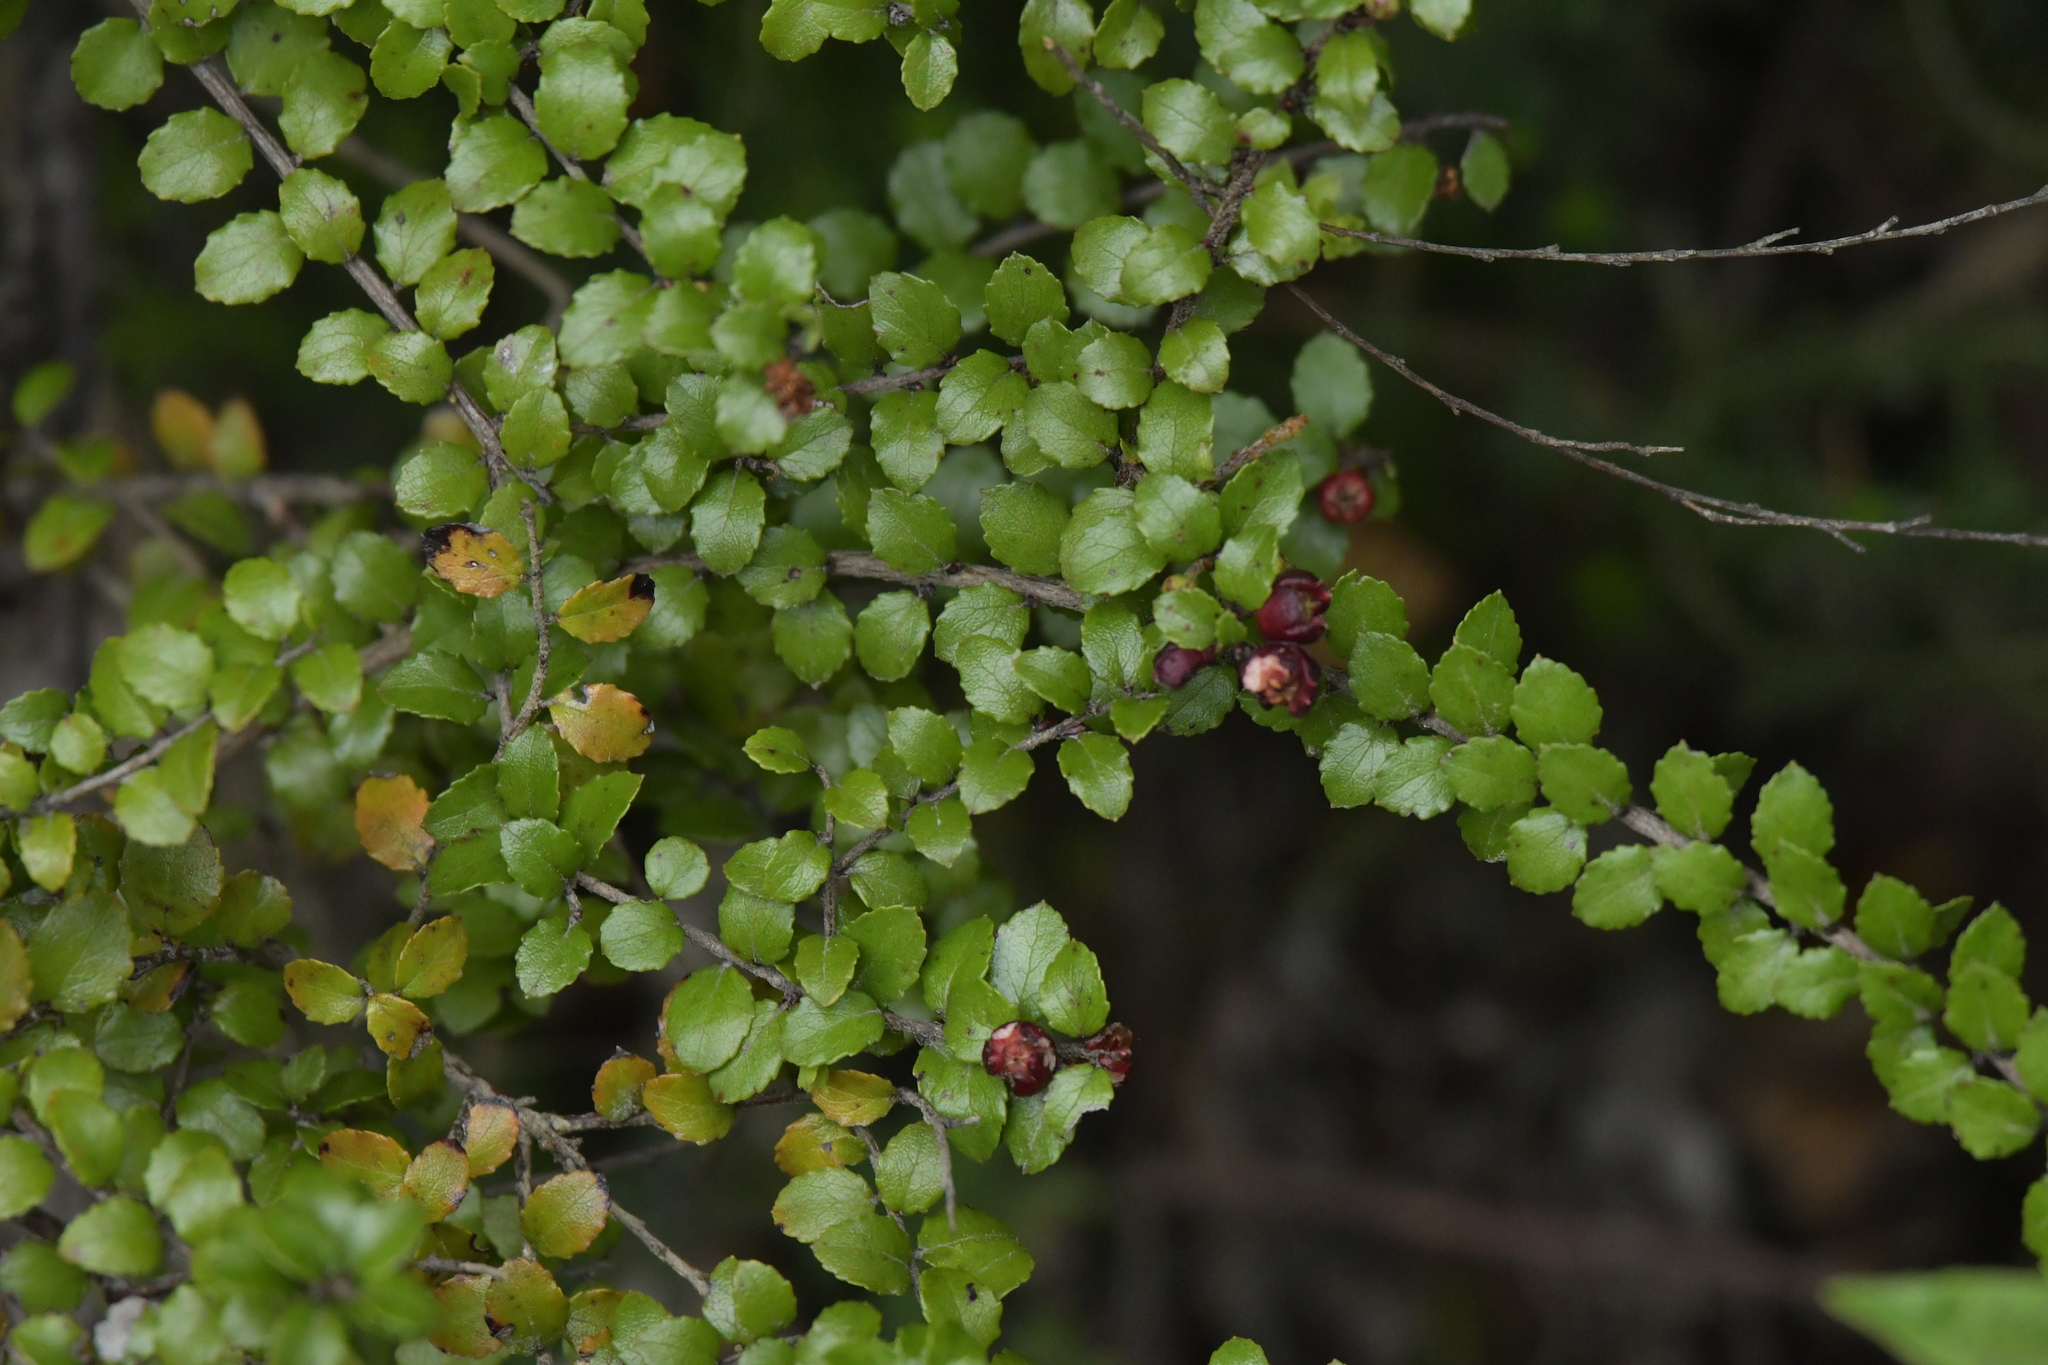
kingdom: Plantae
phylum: Tracheophyta
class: Magnoliopsida
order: Ericales
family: Ericaceae
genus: Gaultheria
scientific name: Gaultheria antipoda
